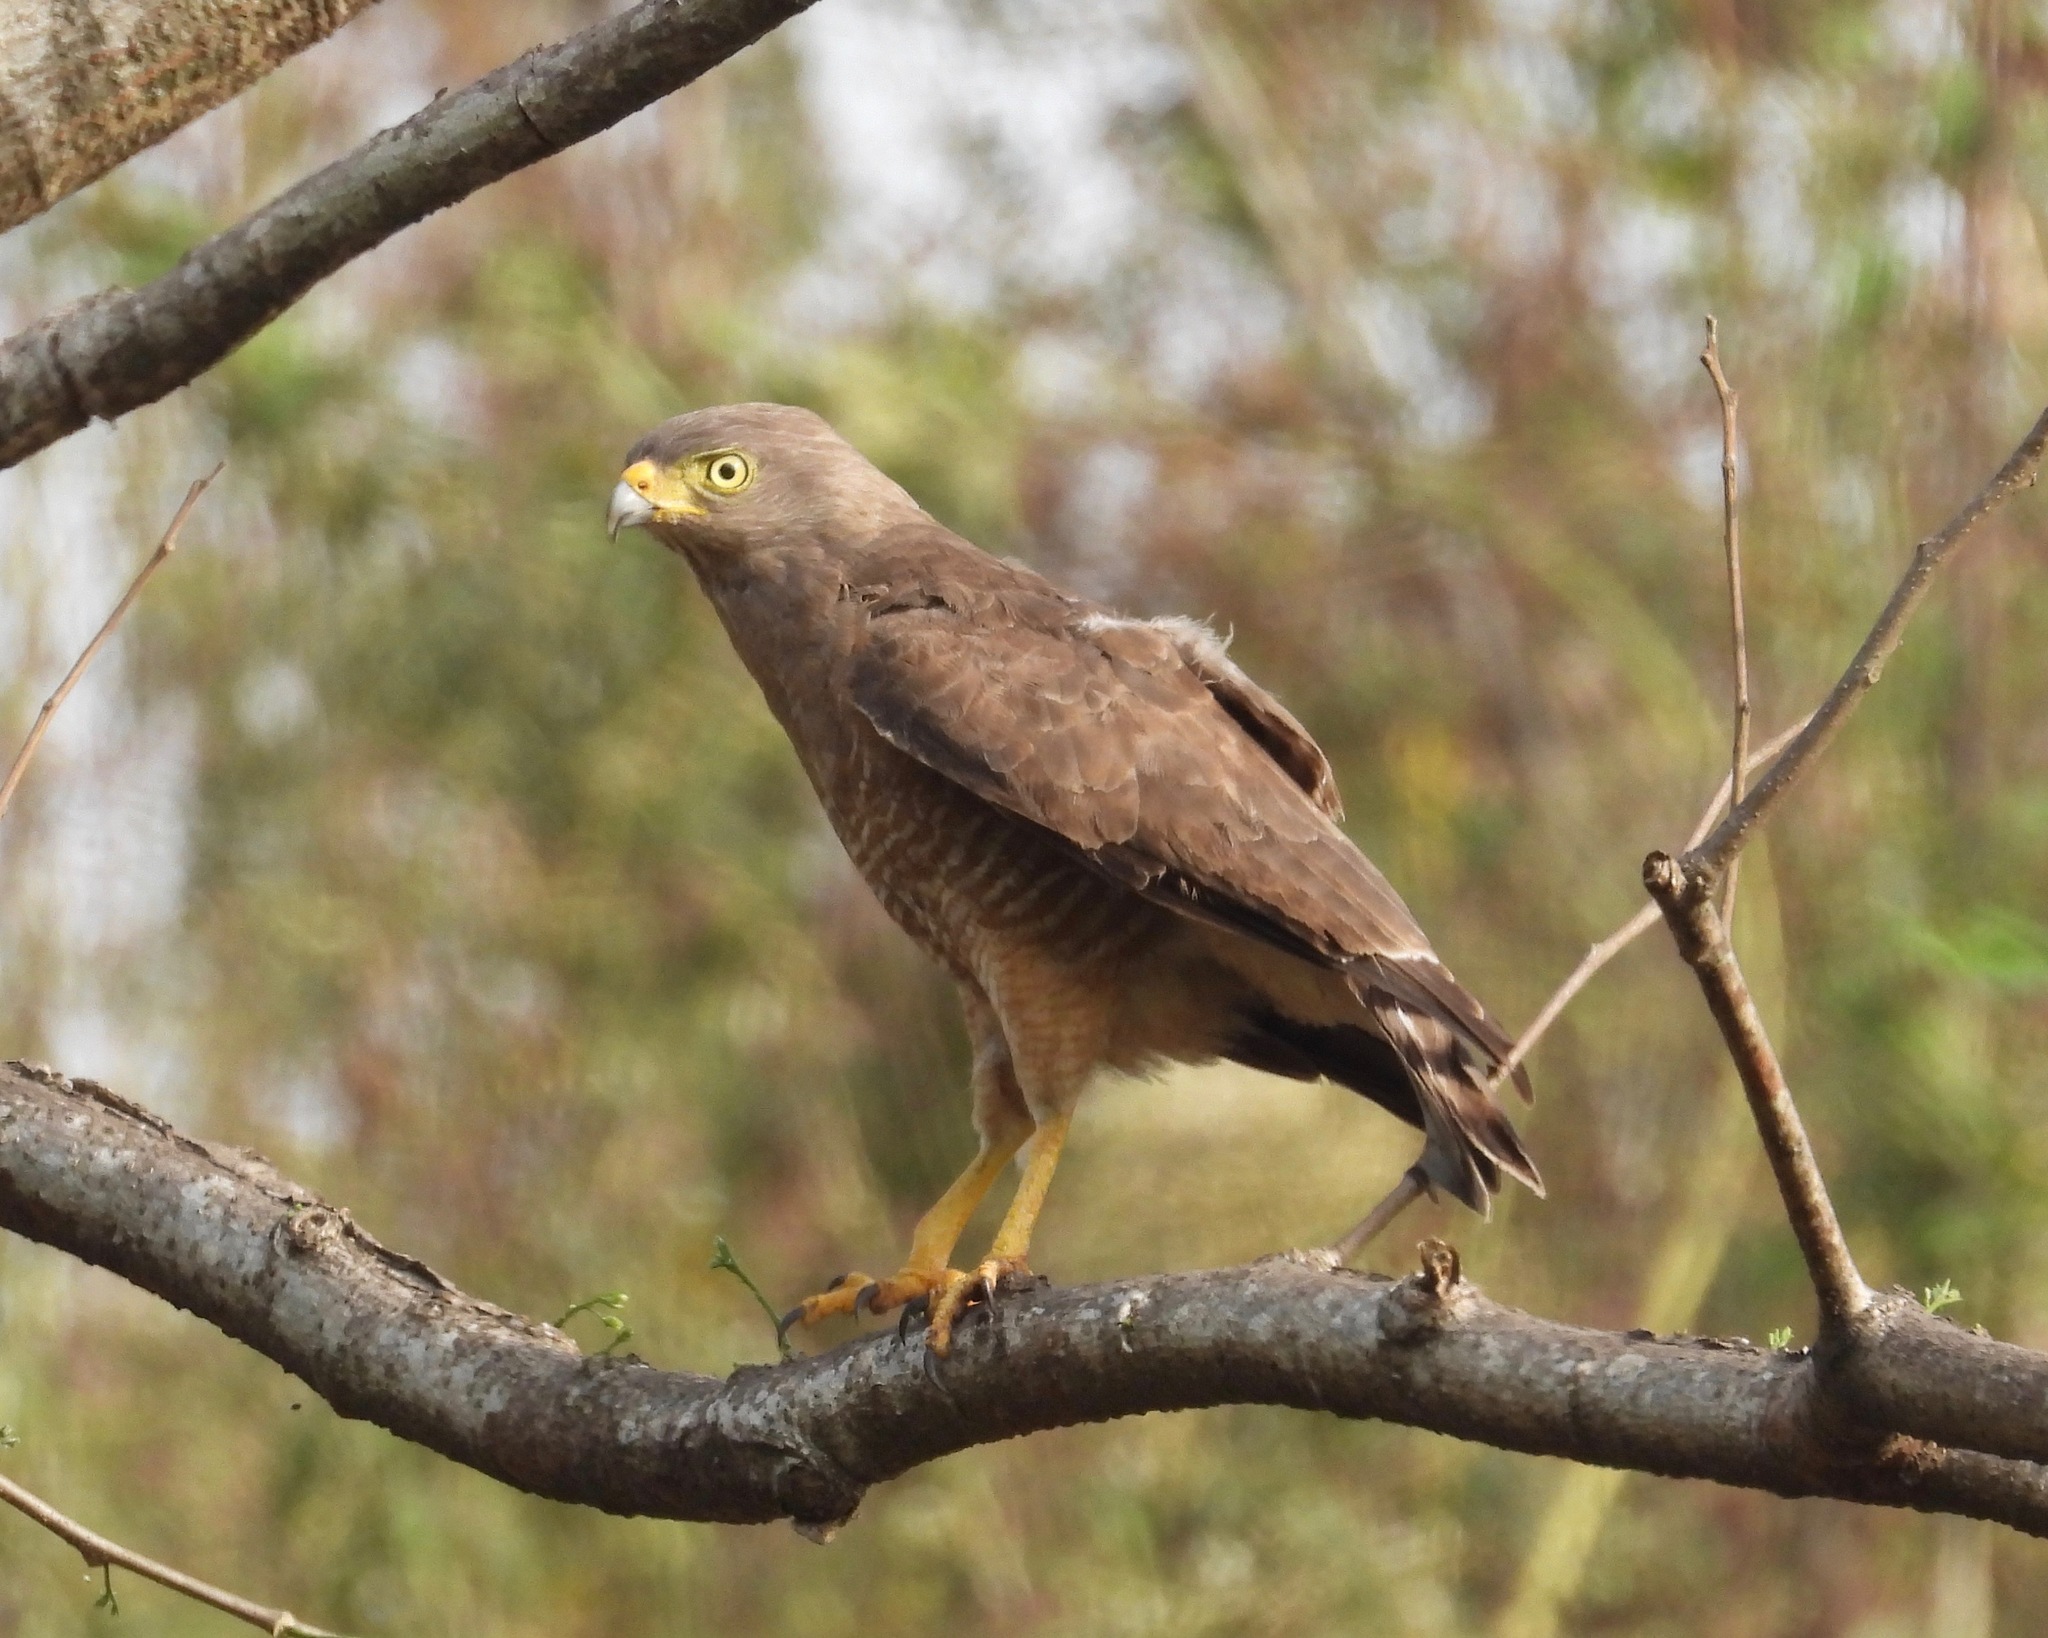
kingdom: Animalia
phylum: Chordata
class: Aves
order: Accipitriformes
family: Accipitridae
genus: Rupornis
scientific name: Rupornis magnirostris
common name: Roadside hawk
